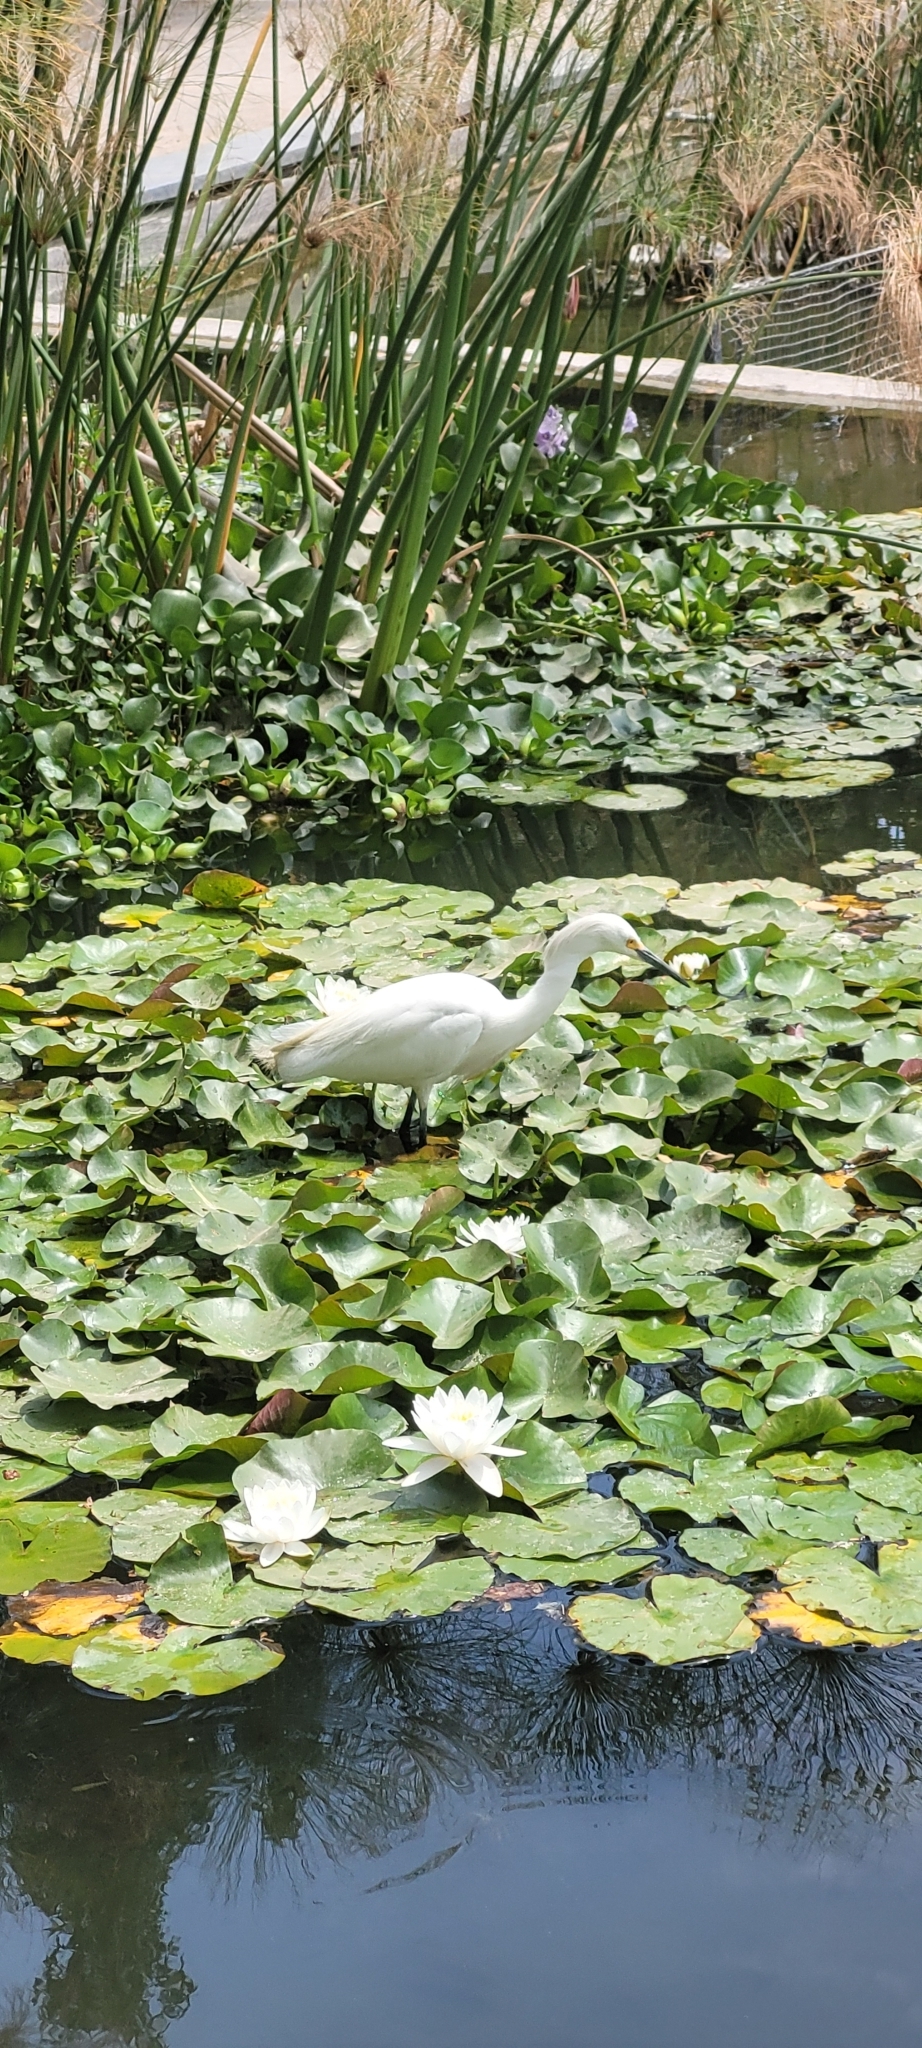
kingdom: Animalia
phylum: Chordata
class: Aves
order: Pelecaniformes
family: Ardeidae
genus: Egretta
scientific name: Egretta thula
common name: Snowy egret
